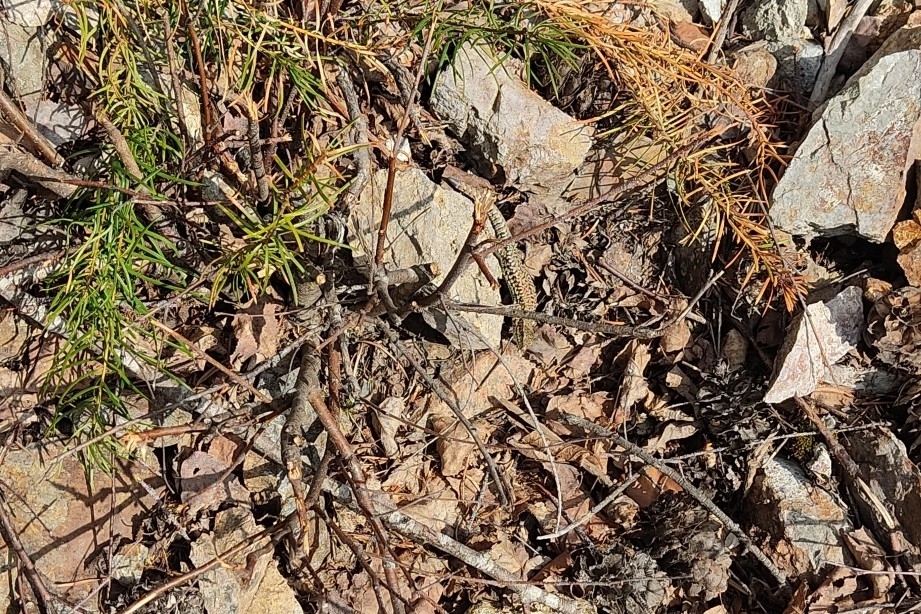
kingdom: Animalia
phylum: Chordata
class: Squamata
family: Lacertidae
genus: Podarcis
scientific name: Podarcis muralis
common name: Common wall lizard
